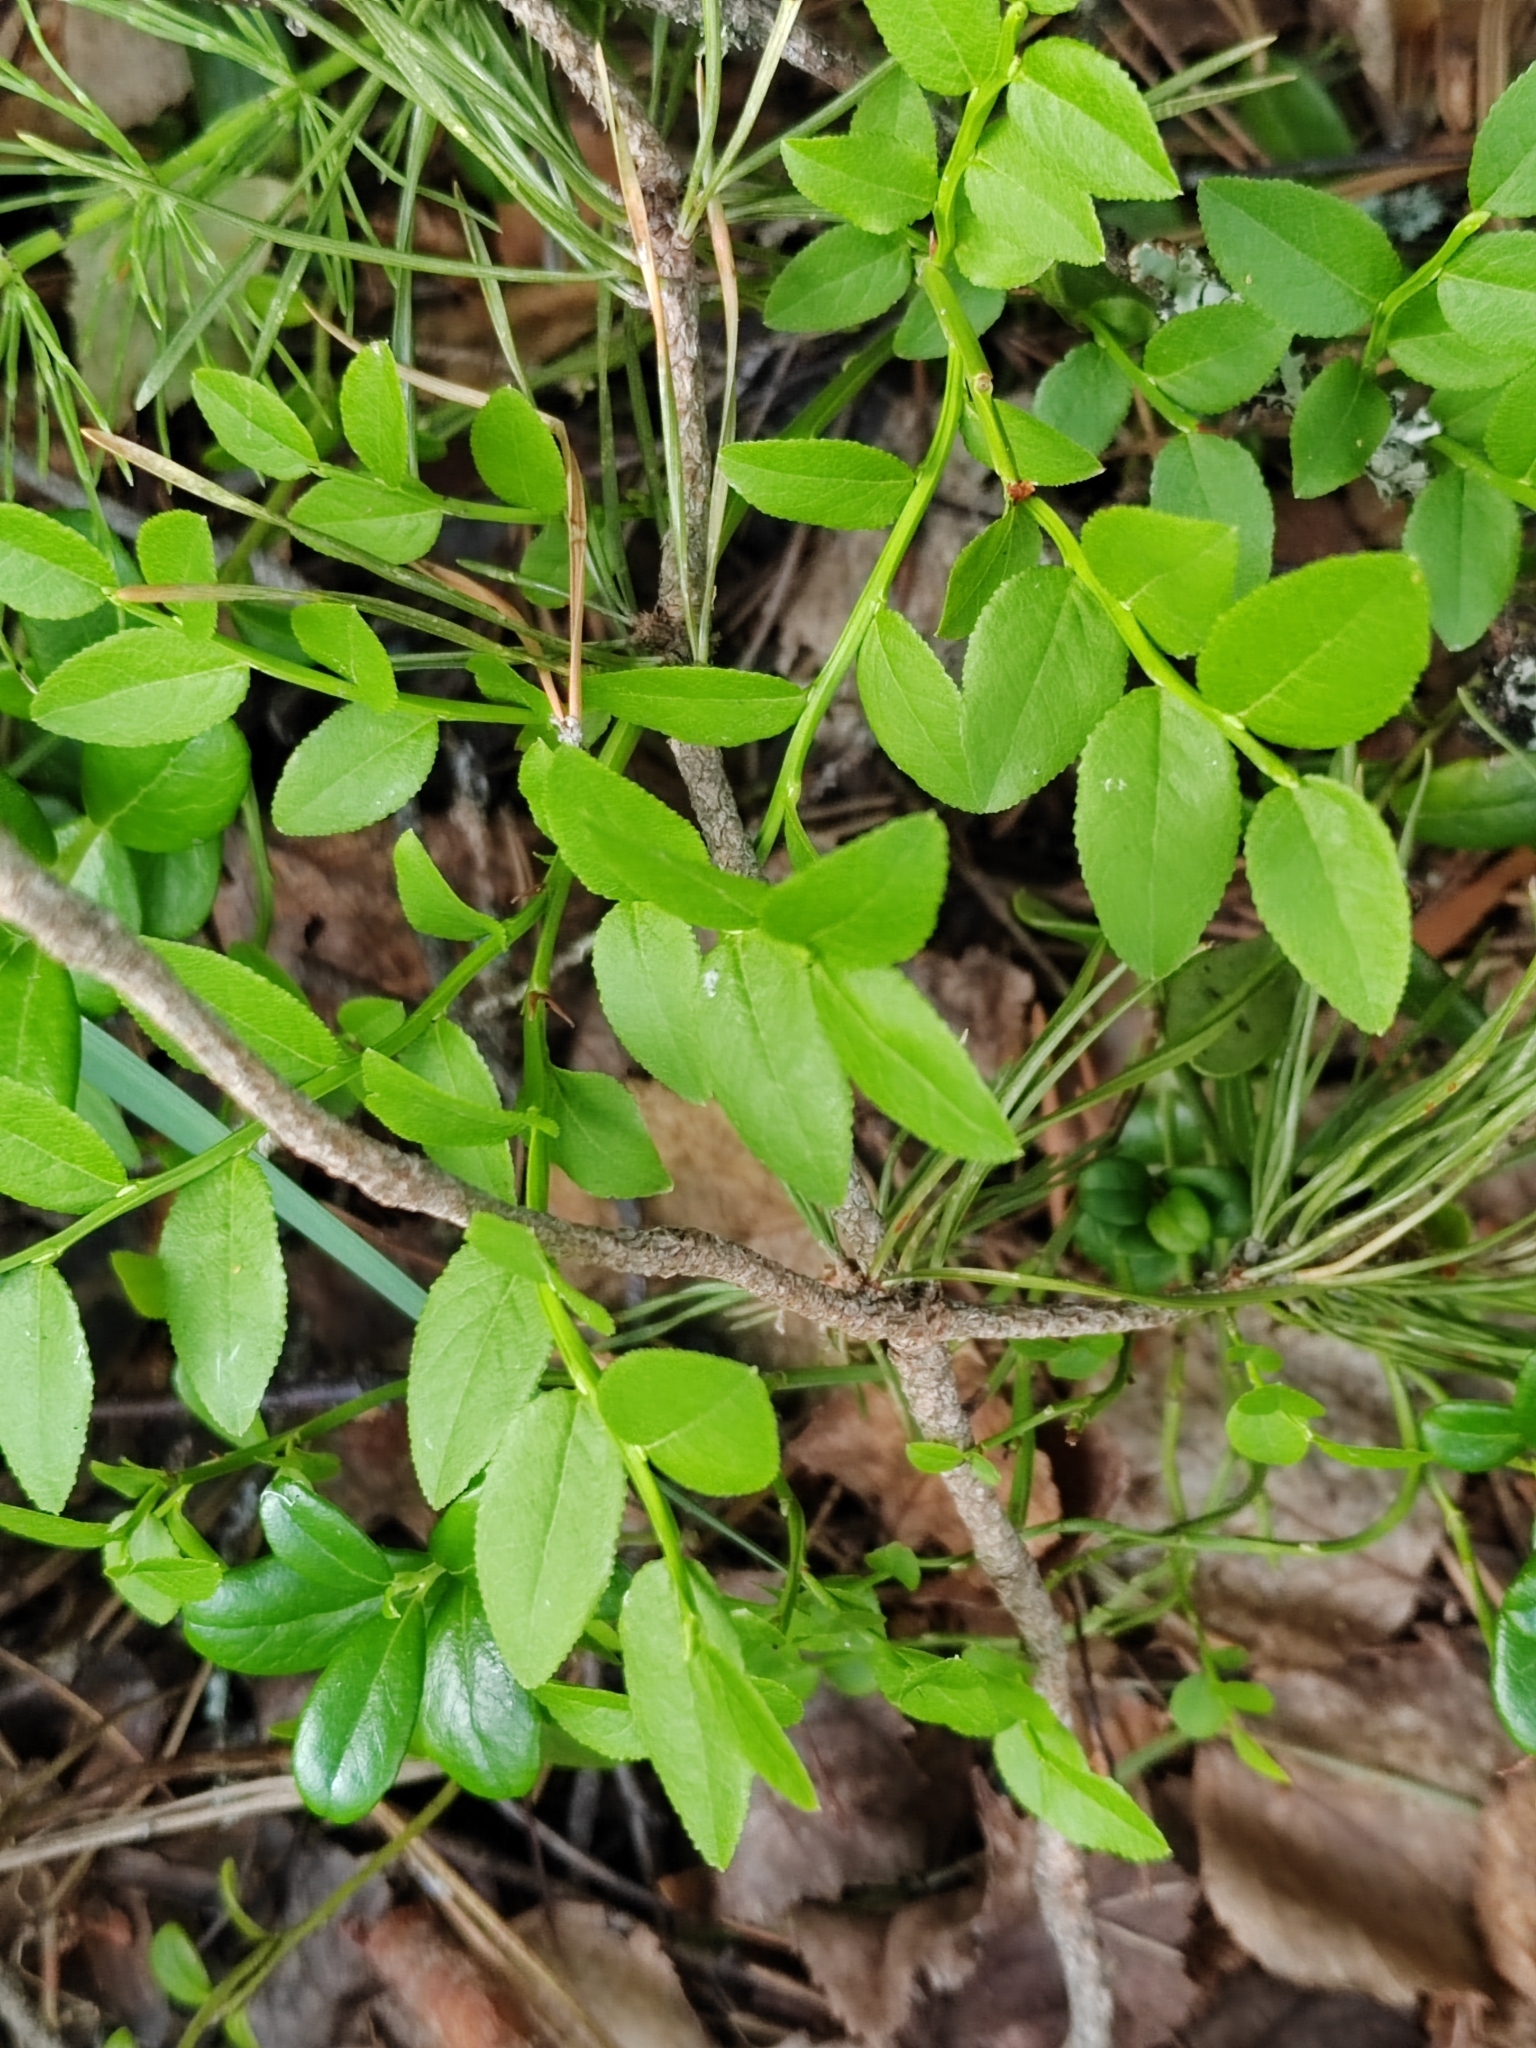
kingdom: Plantae
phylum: Tracheophyta
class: Magnoliopsida
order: Ericales
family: Ericaceae
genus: Vaccinium
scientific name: Vaccinium myrtillus
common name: Bilberry
